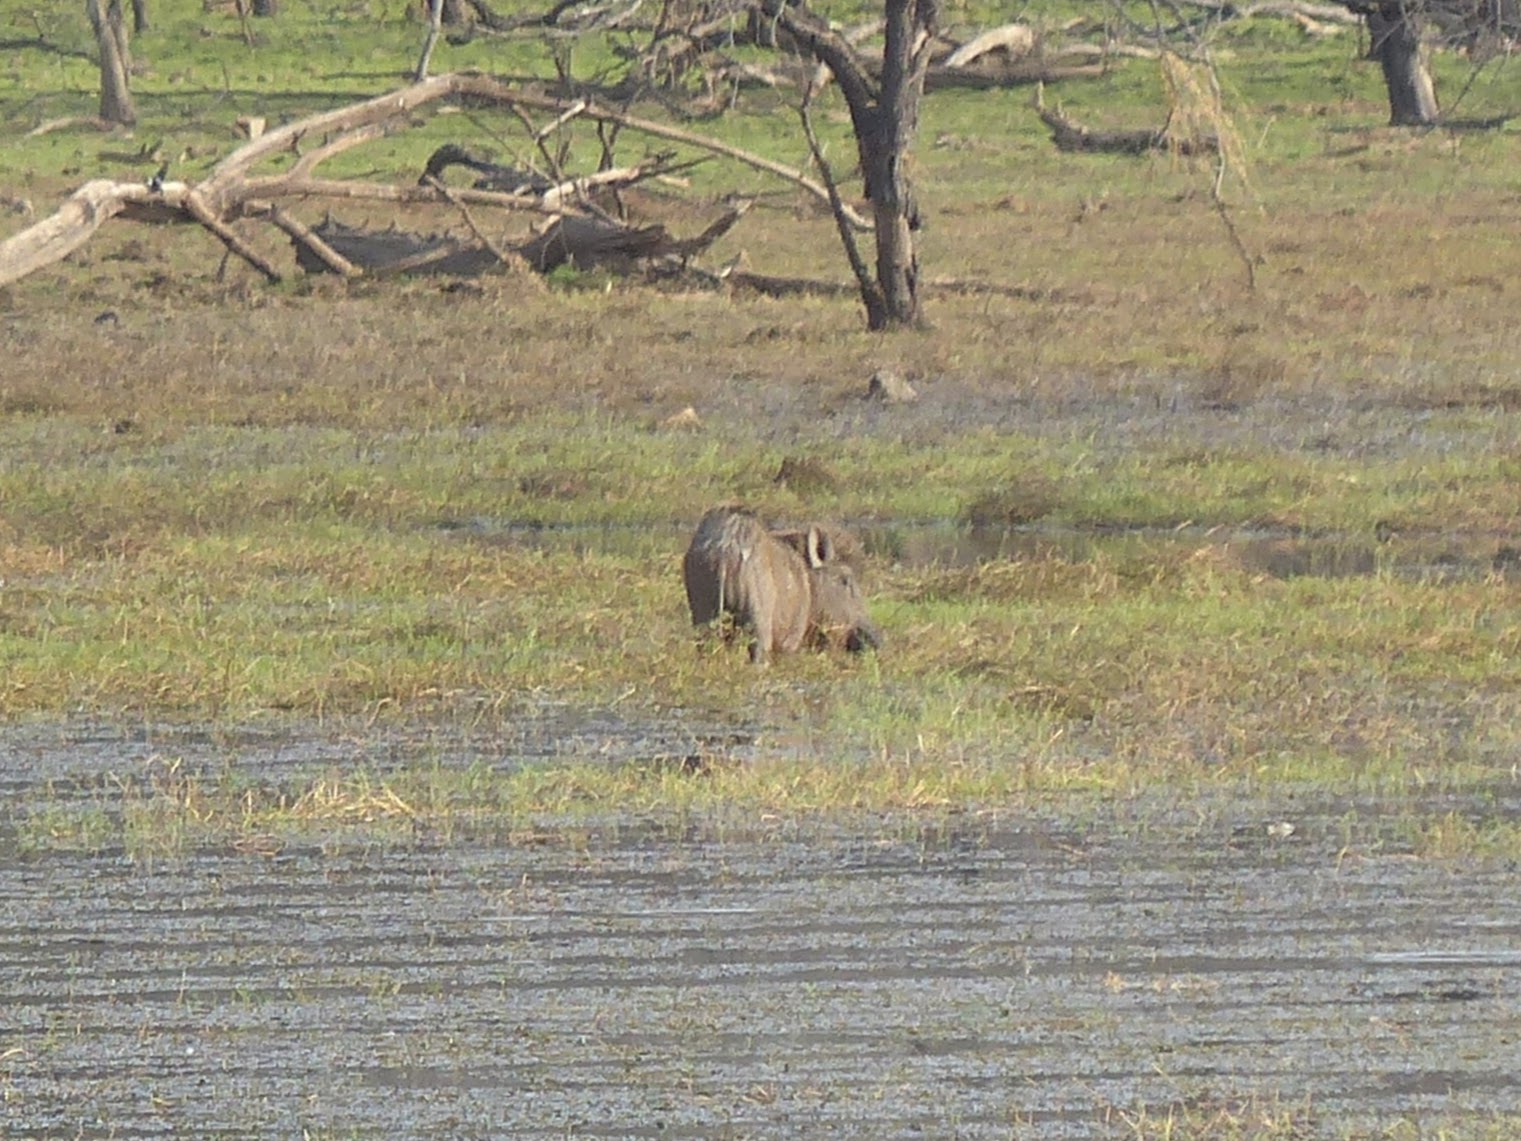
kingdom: Animalia
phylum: Chordata
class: Mammalia
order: Artiodactyla
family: Suidae
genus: Sus
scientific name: Sus scrofa
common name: Wild boar
